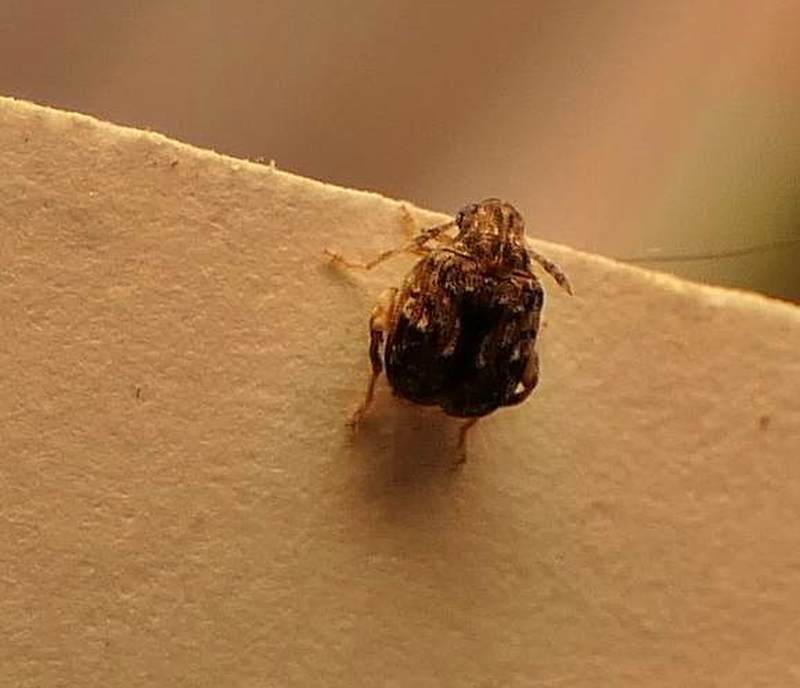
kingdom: Animalia
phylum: Arthropoda
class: Insecta
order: Coleoptera
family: Chrysomelidae
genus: Gibbobruchus
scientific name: Gibbobruchus mimus
